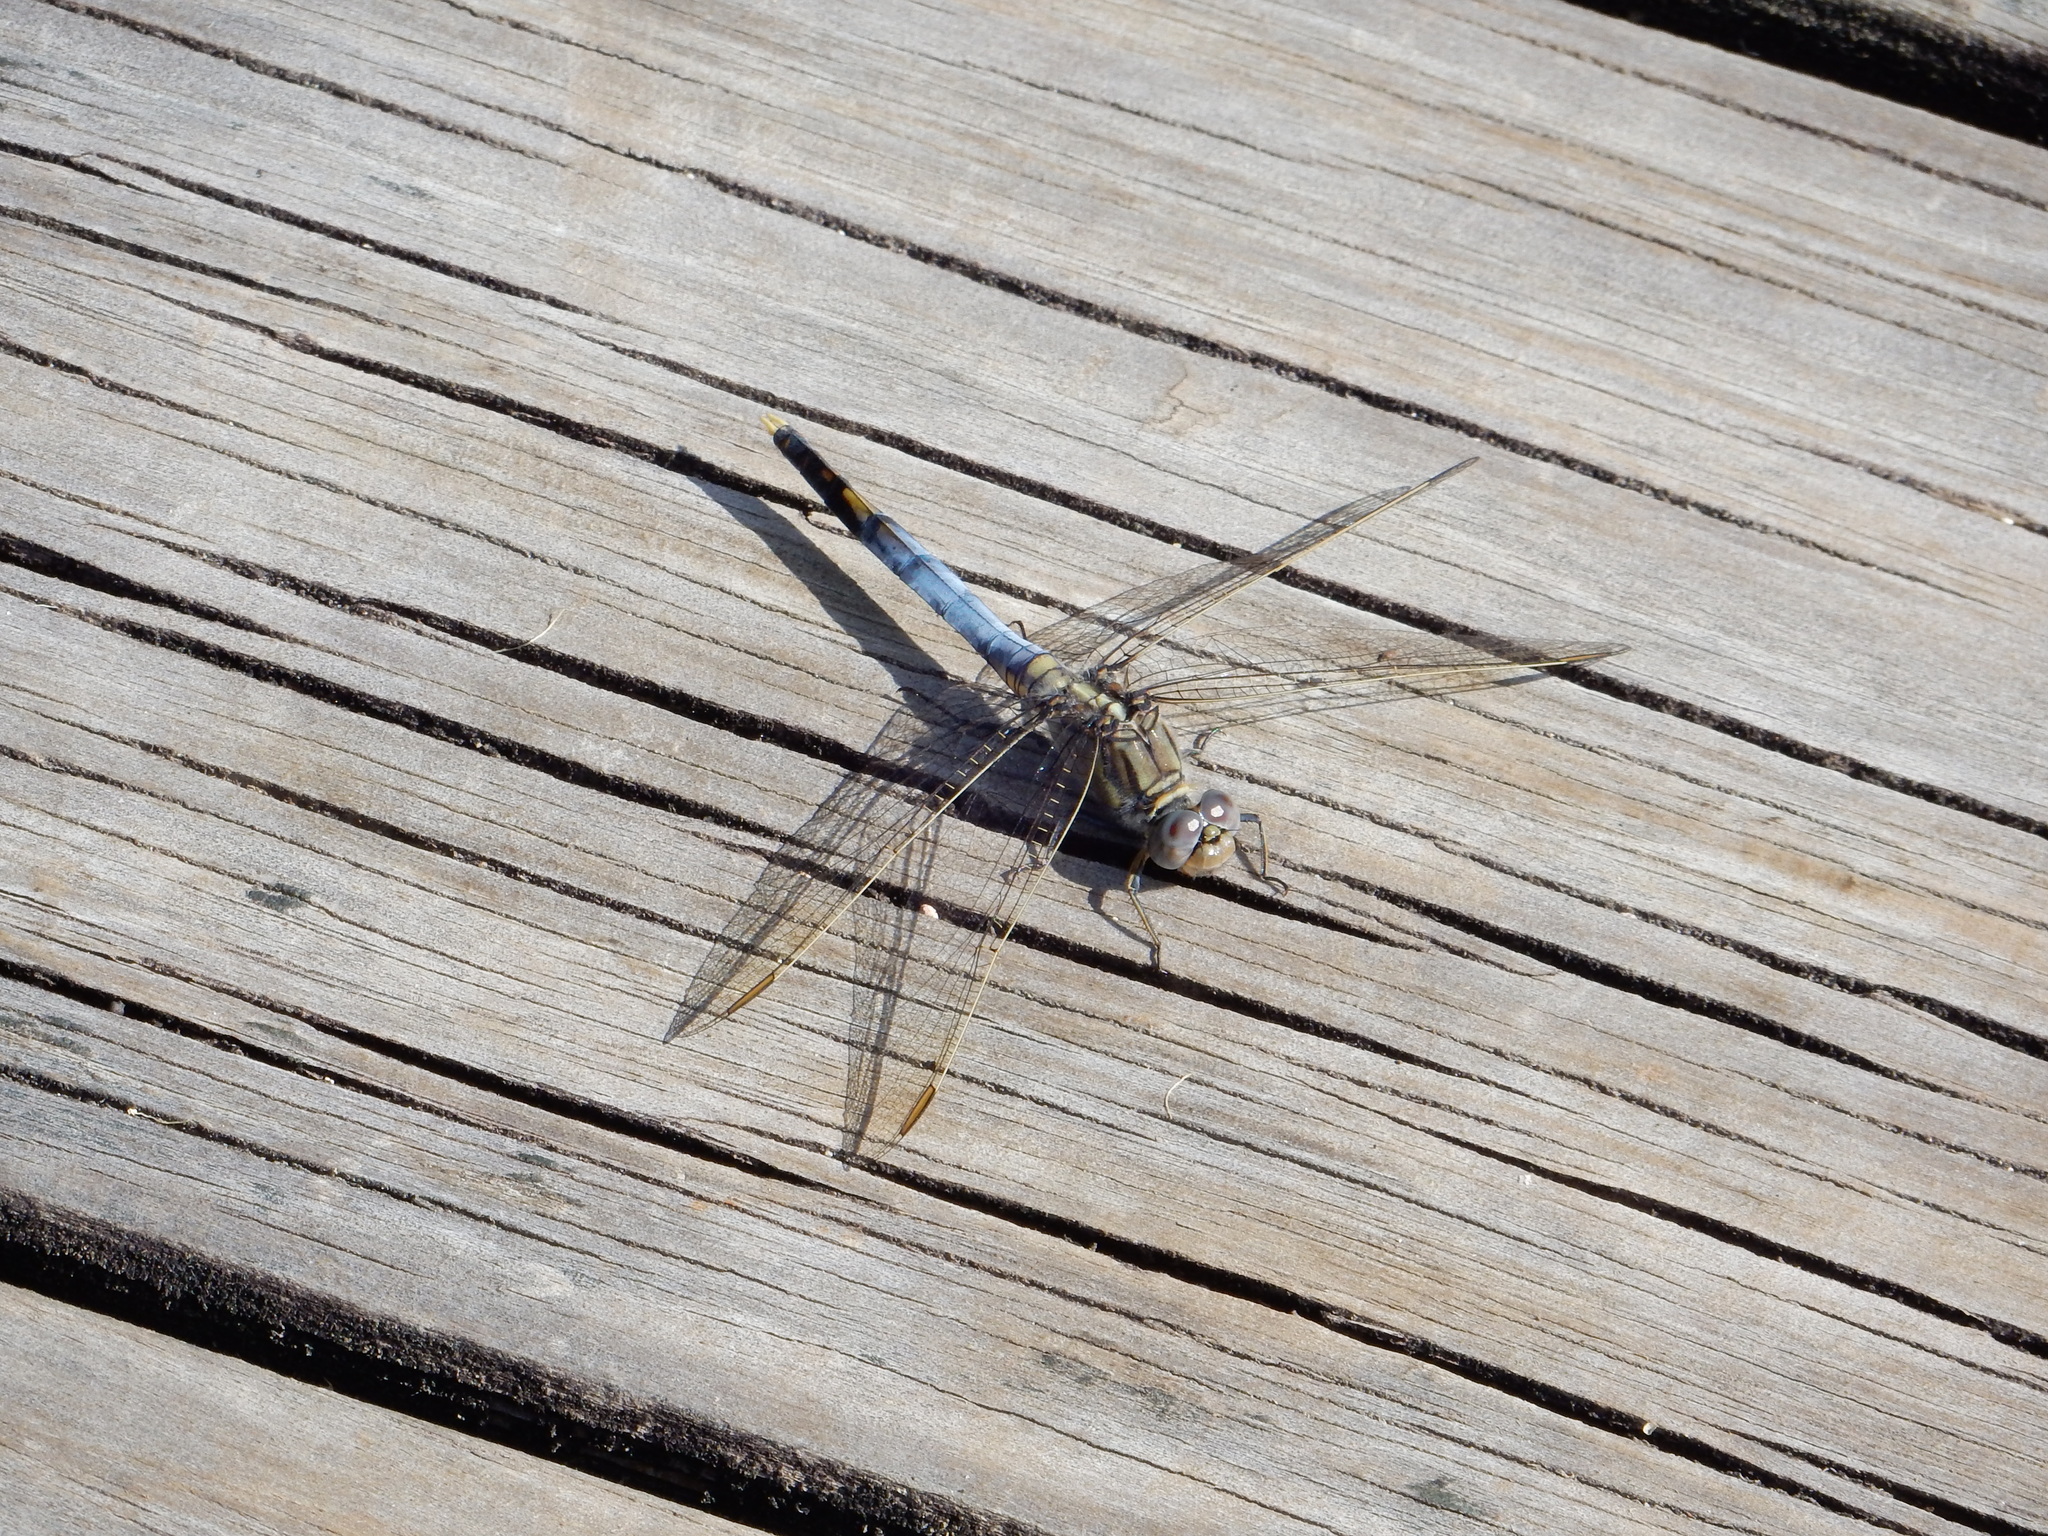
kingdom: Animalia
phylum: Arthropoda
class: Insecta
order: Odonata
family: Libellulidae
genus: Orthetrum
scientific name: Orthetrum caledonicum
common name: Blue skimmer
